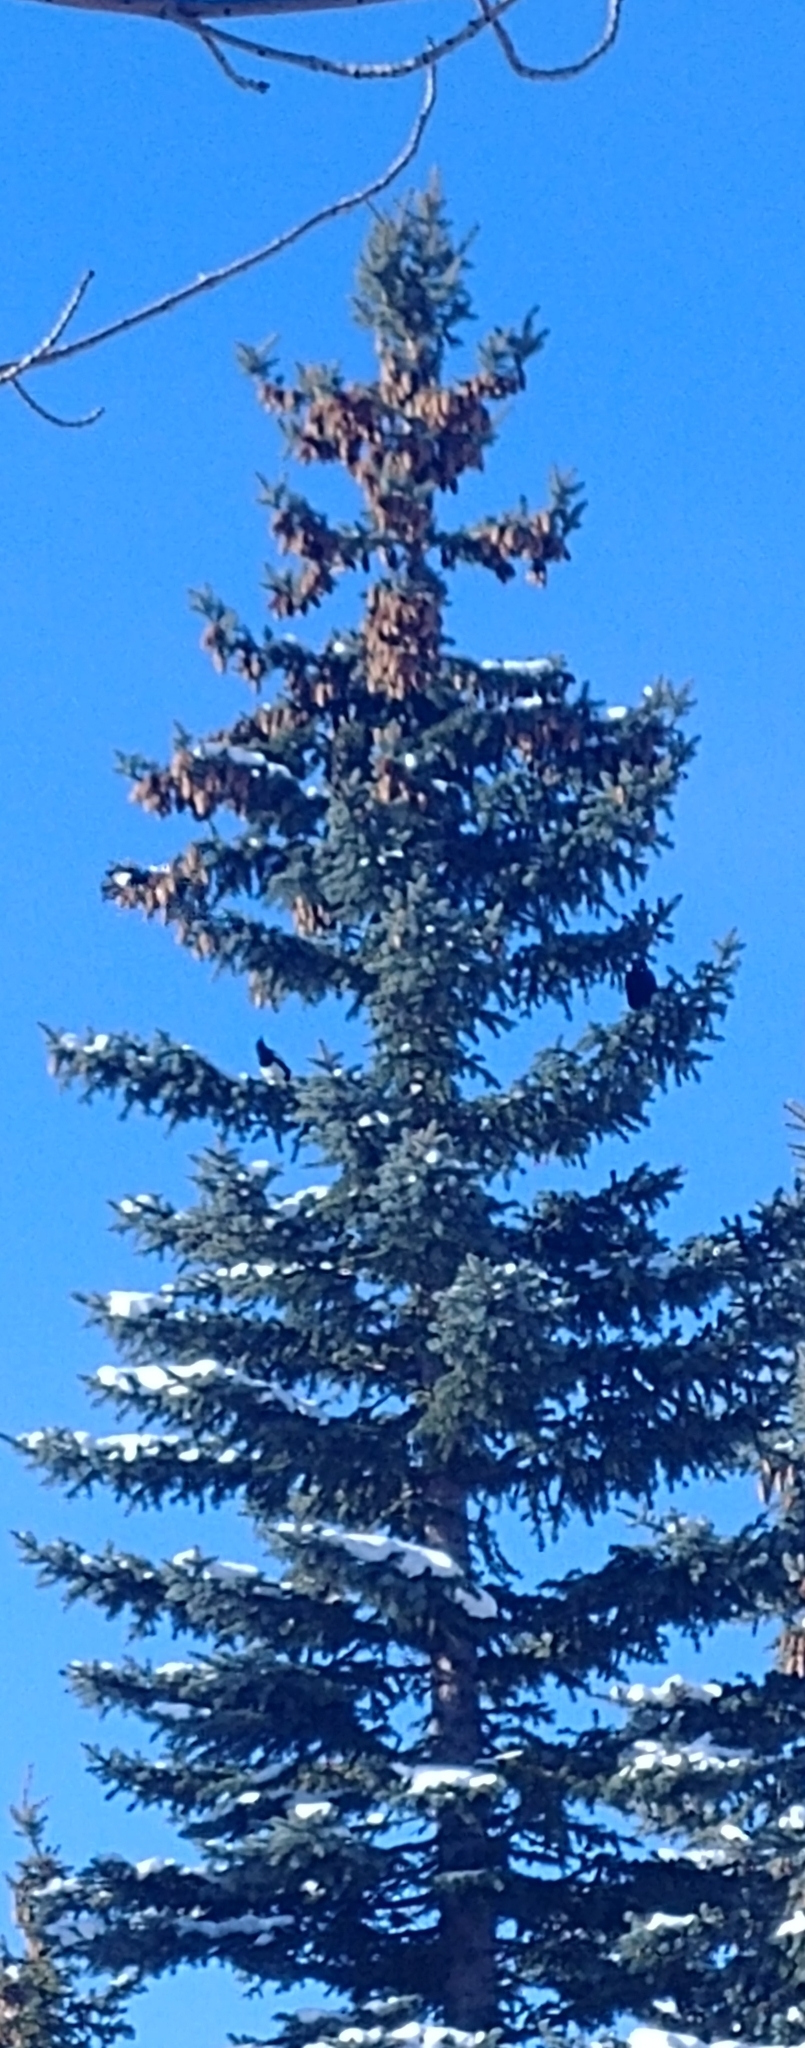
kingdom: Animalia
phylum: Chordata
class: Aves
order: Passeriformes
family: Corvidae
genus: Corvus
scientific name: Corvus brachyrhynchos
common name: American crow
